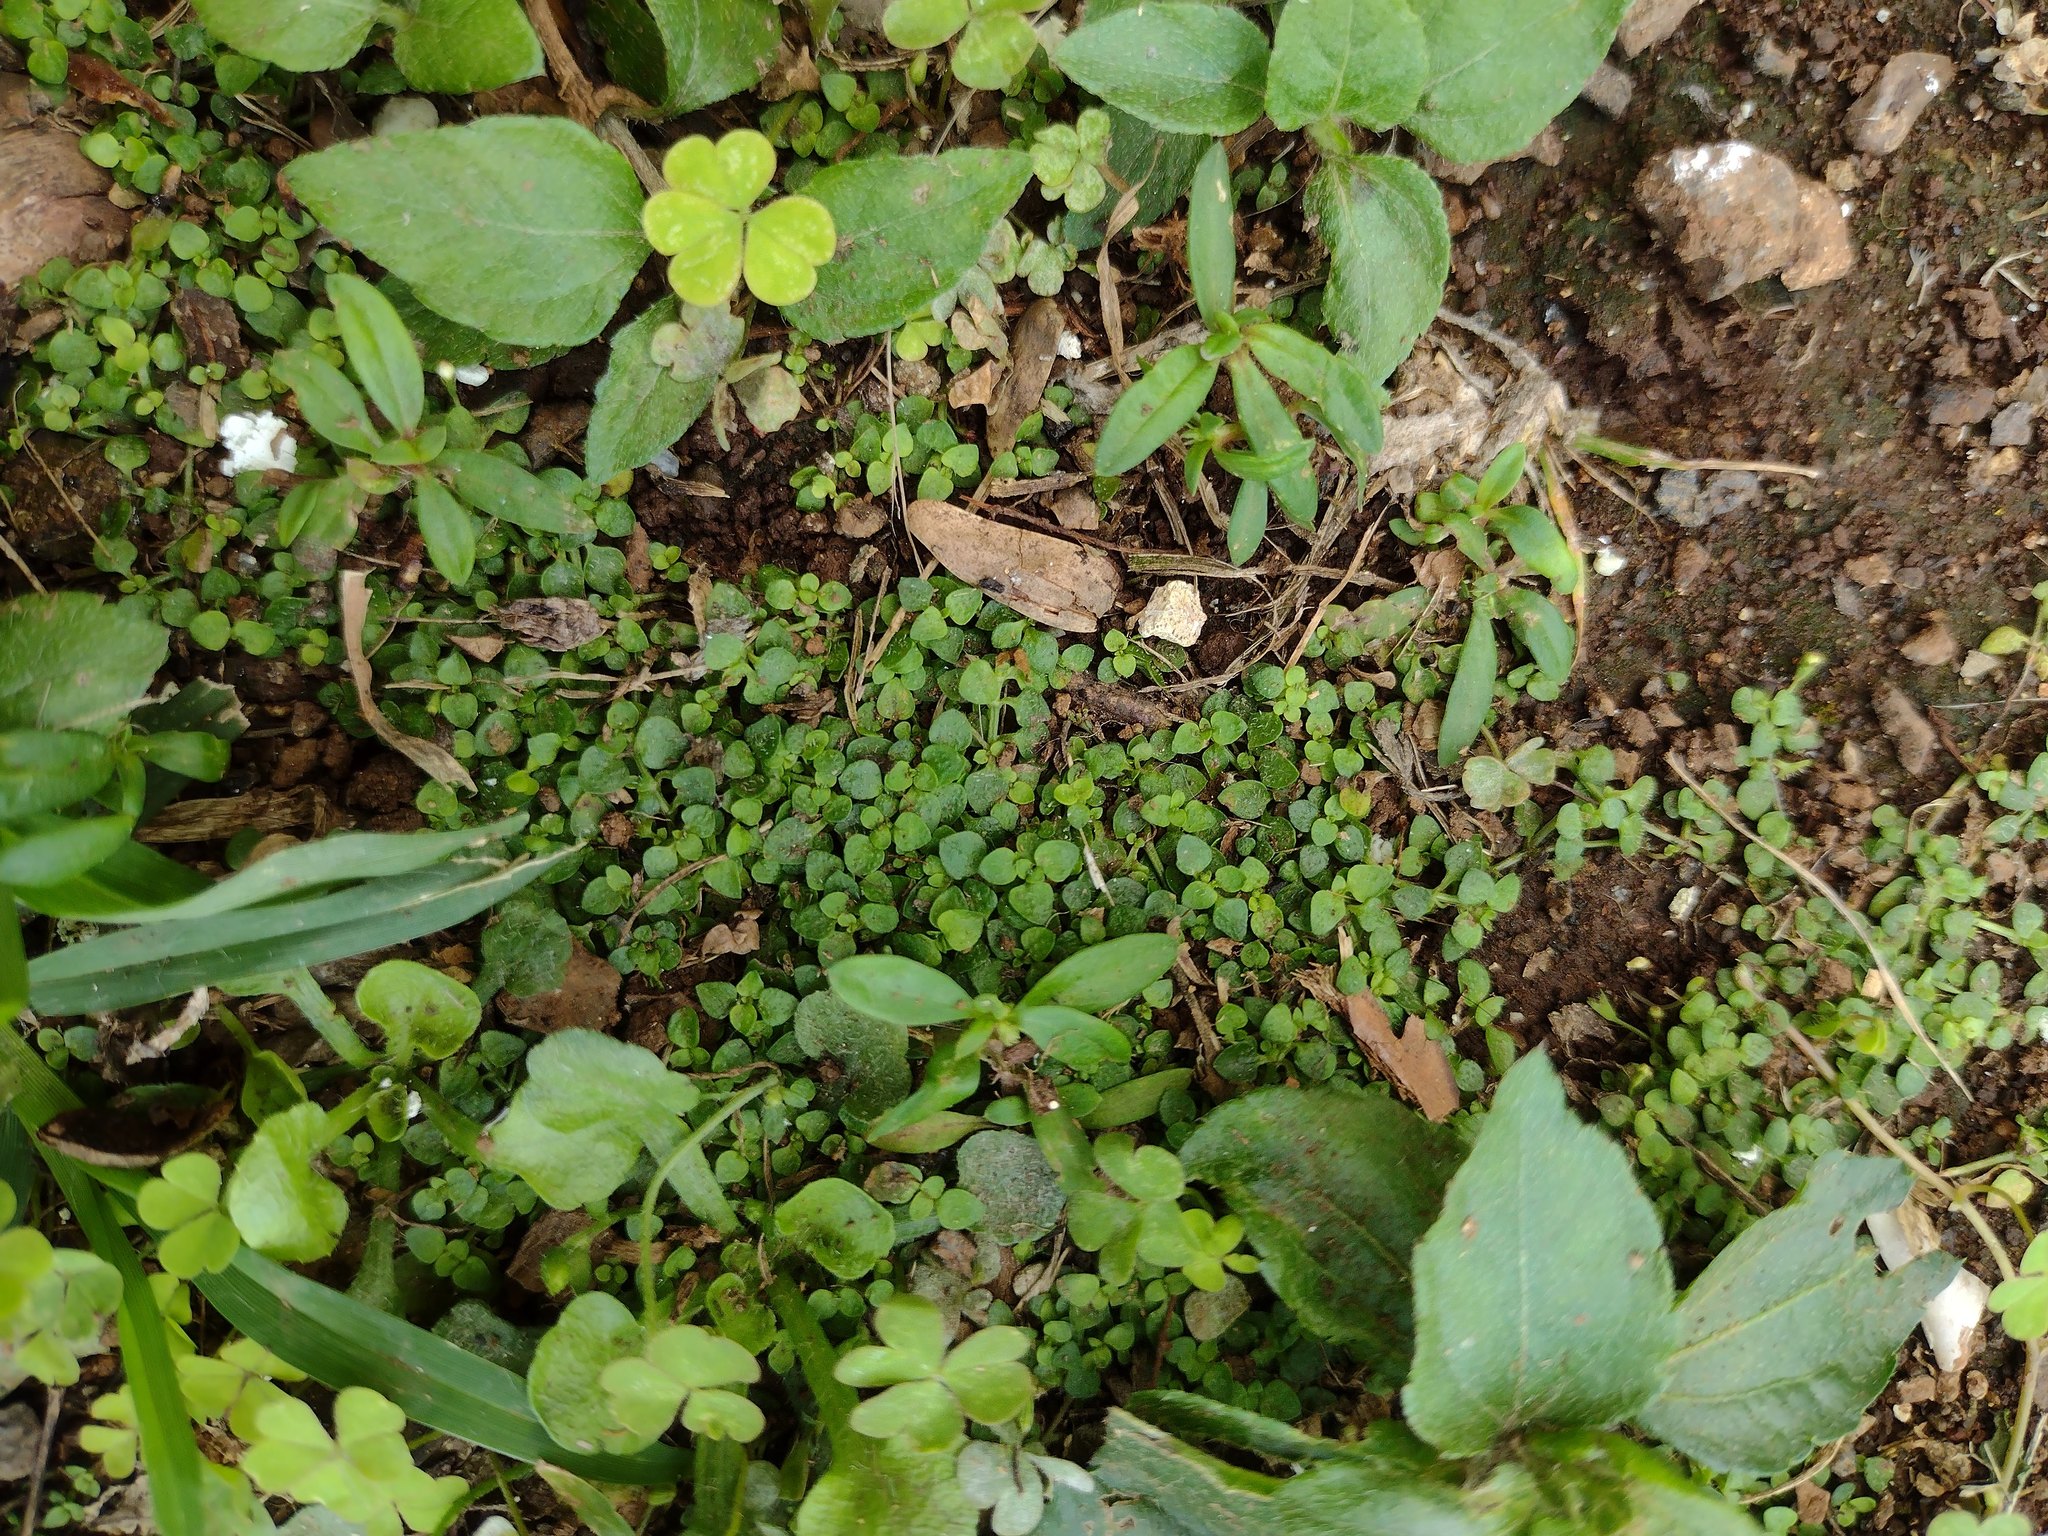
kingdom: Plantae
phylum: Tracheophyta
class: Magnoliopsida
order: Gentianales
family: Rubiaceae
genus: Oldenlandiopsis
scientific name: Oldenlandiopsis callitrichoides
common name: Creeping-bluet
